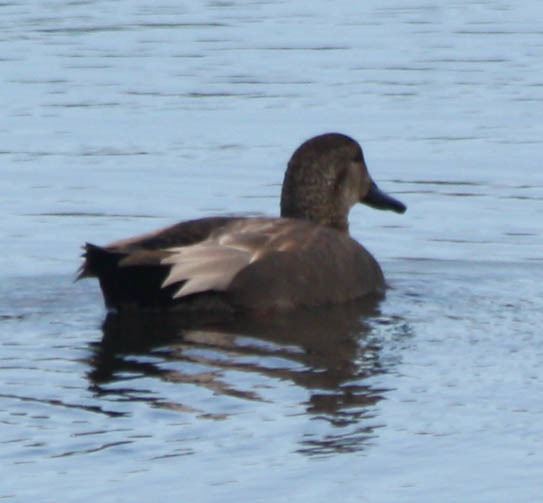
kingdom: Animalia
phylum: Chordata
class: Aves
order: Anseriformes
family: Anatidae
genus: Mareca
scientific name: Mareca strepera
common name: Gadwall
